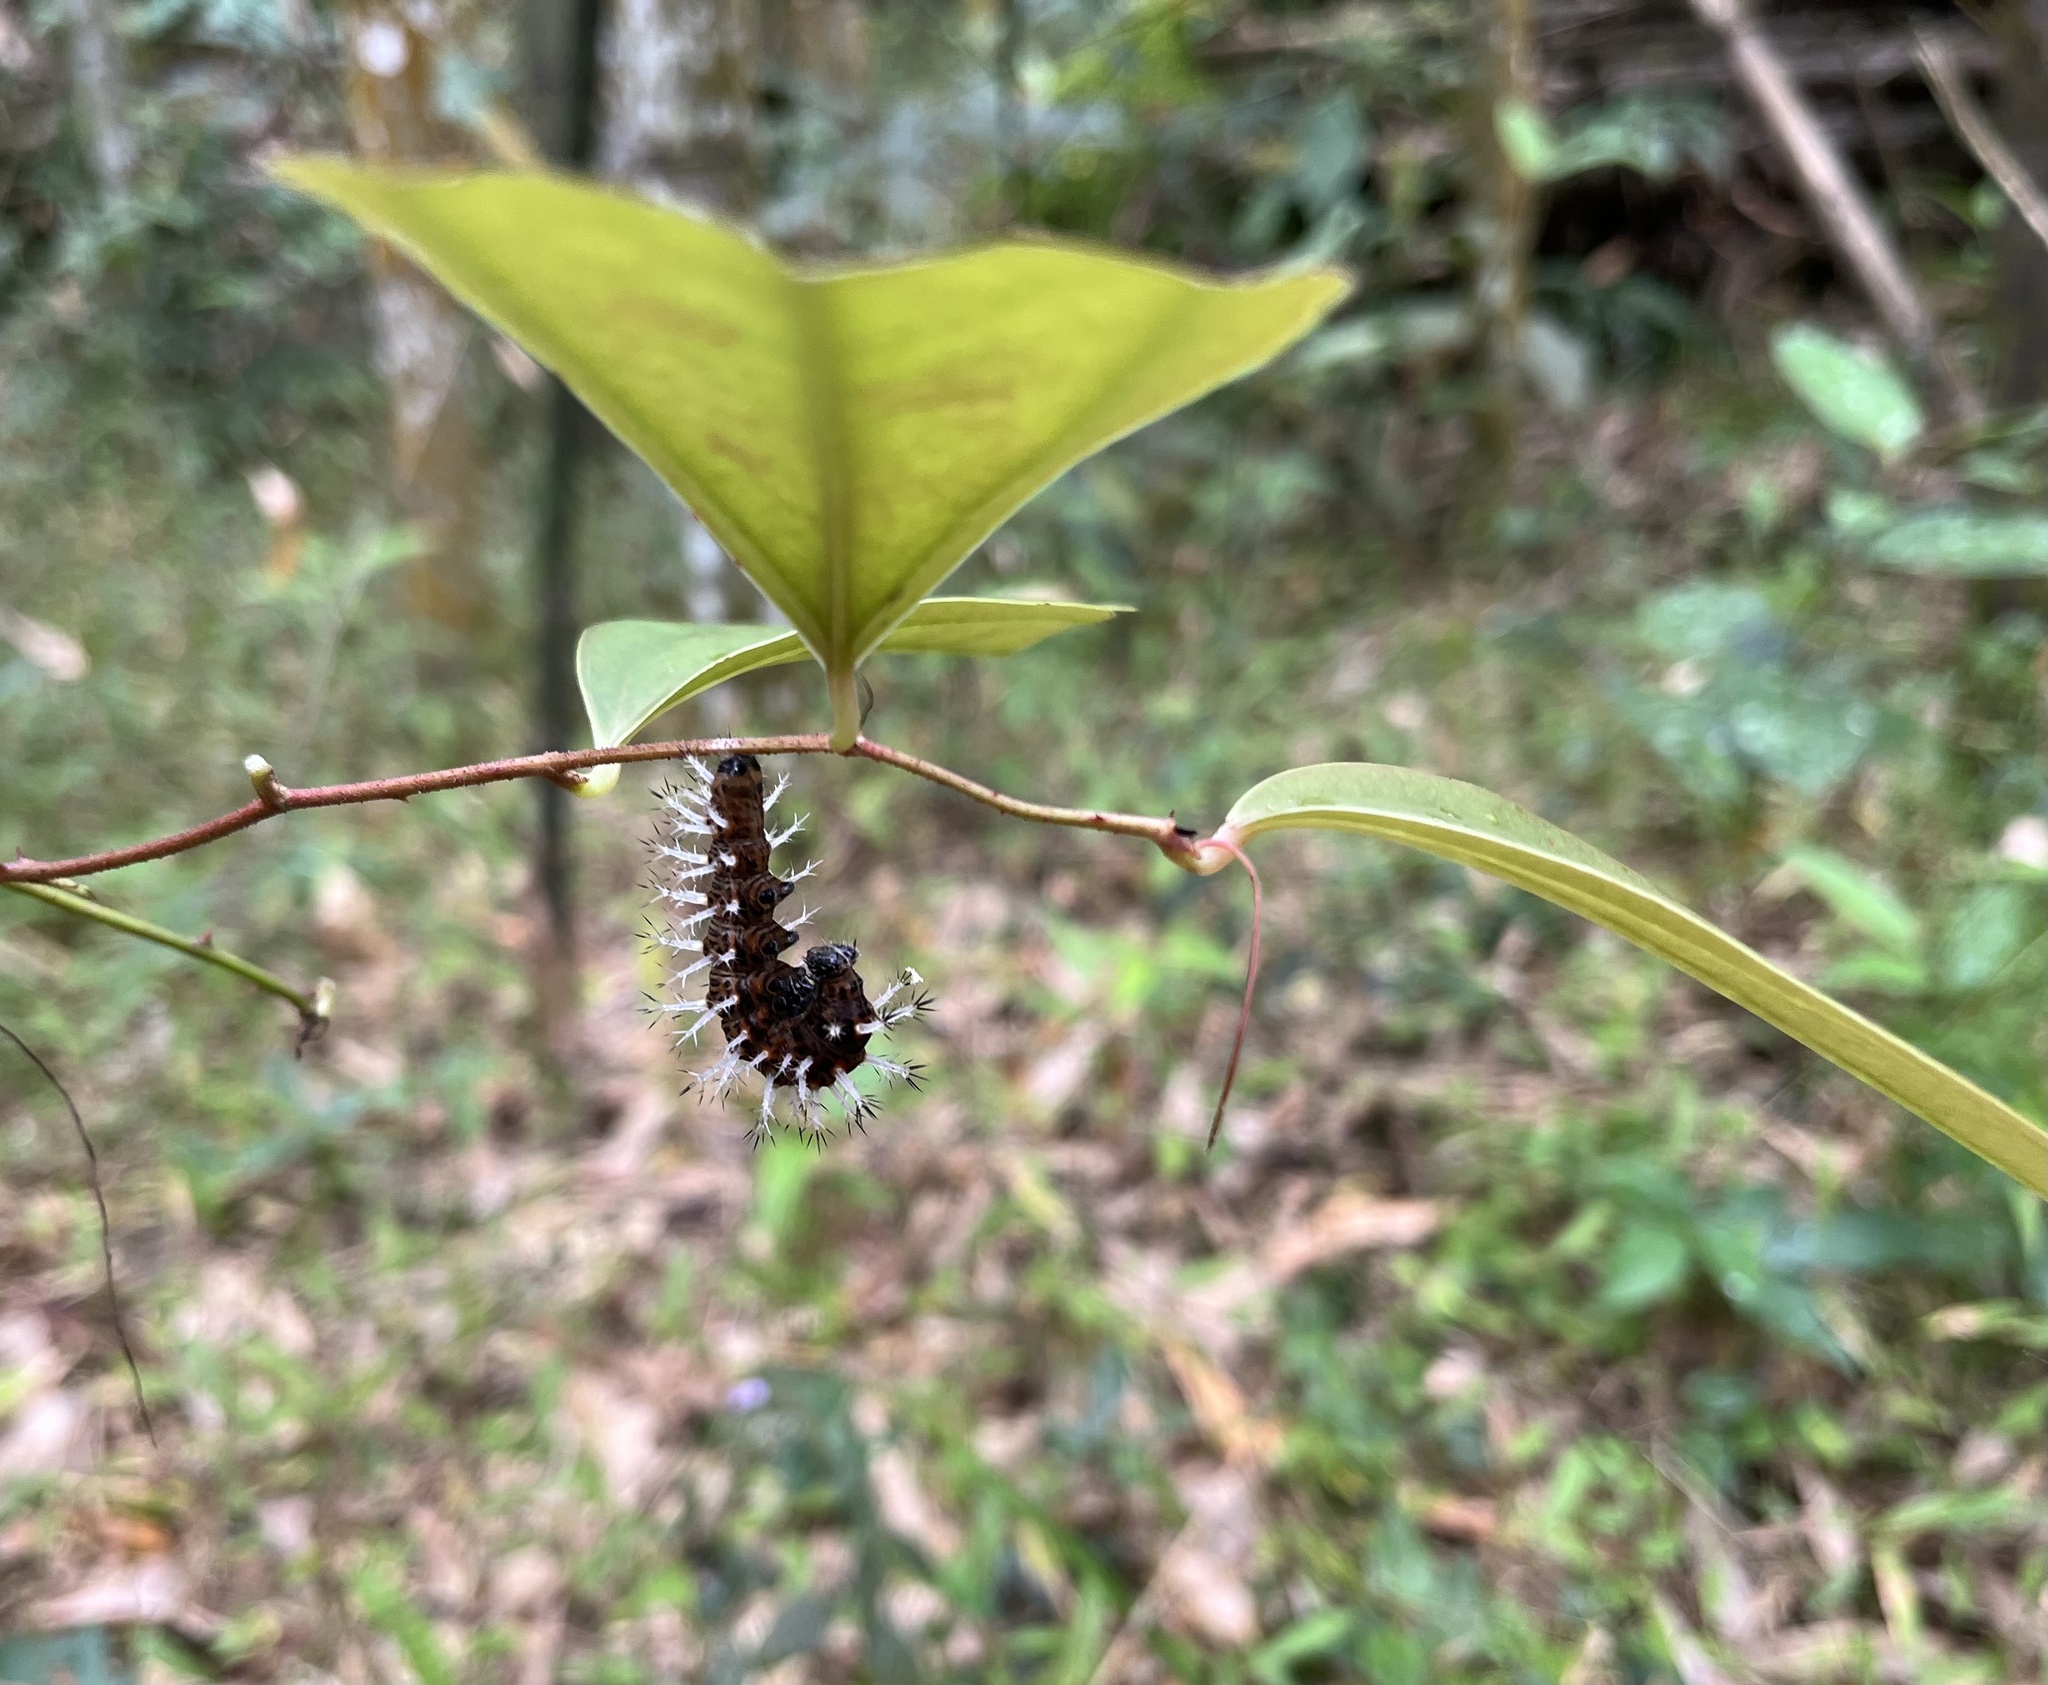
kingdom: Animalia
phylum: Arthropoda
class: Insecta
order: Lepidoptera
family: Nymphalidae
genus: Vanessa
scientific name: Vanessa Kaniska canace
